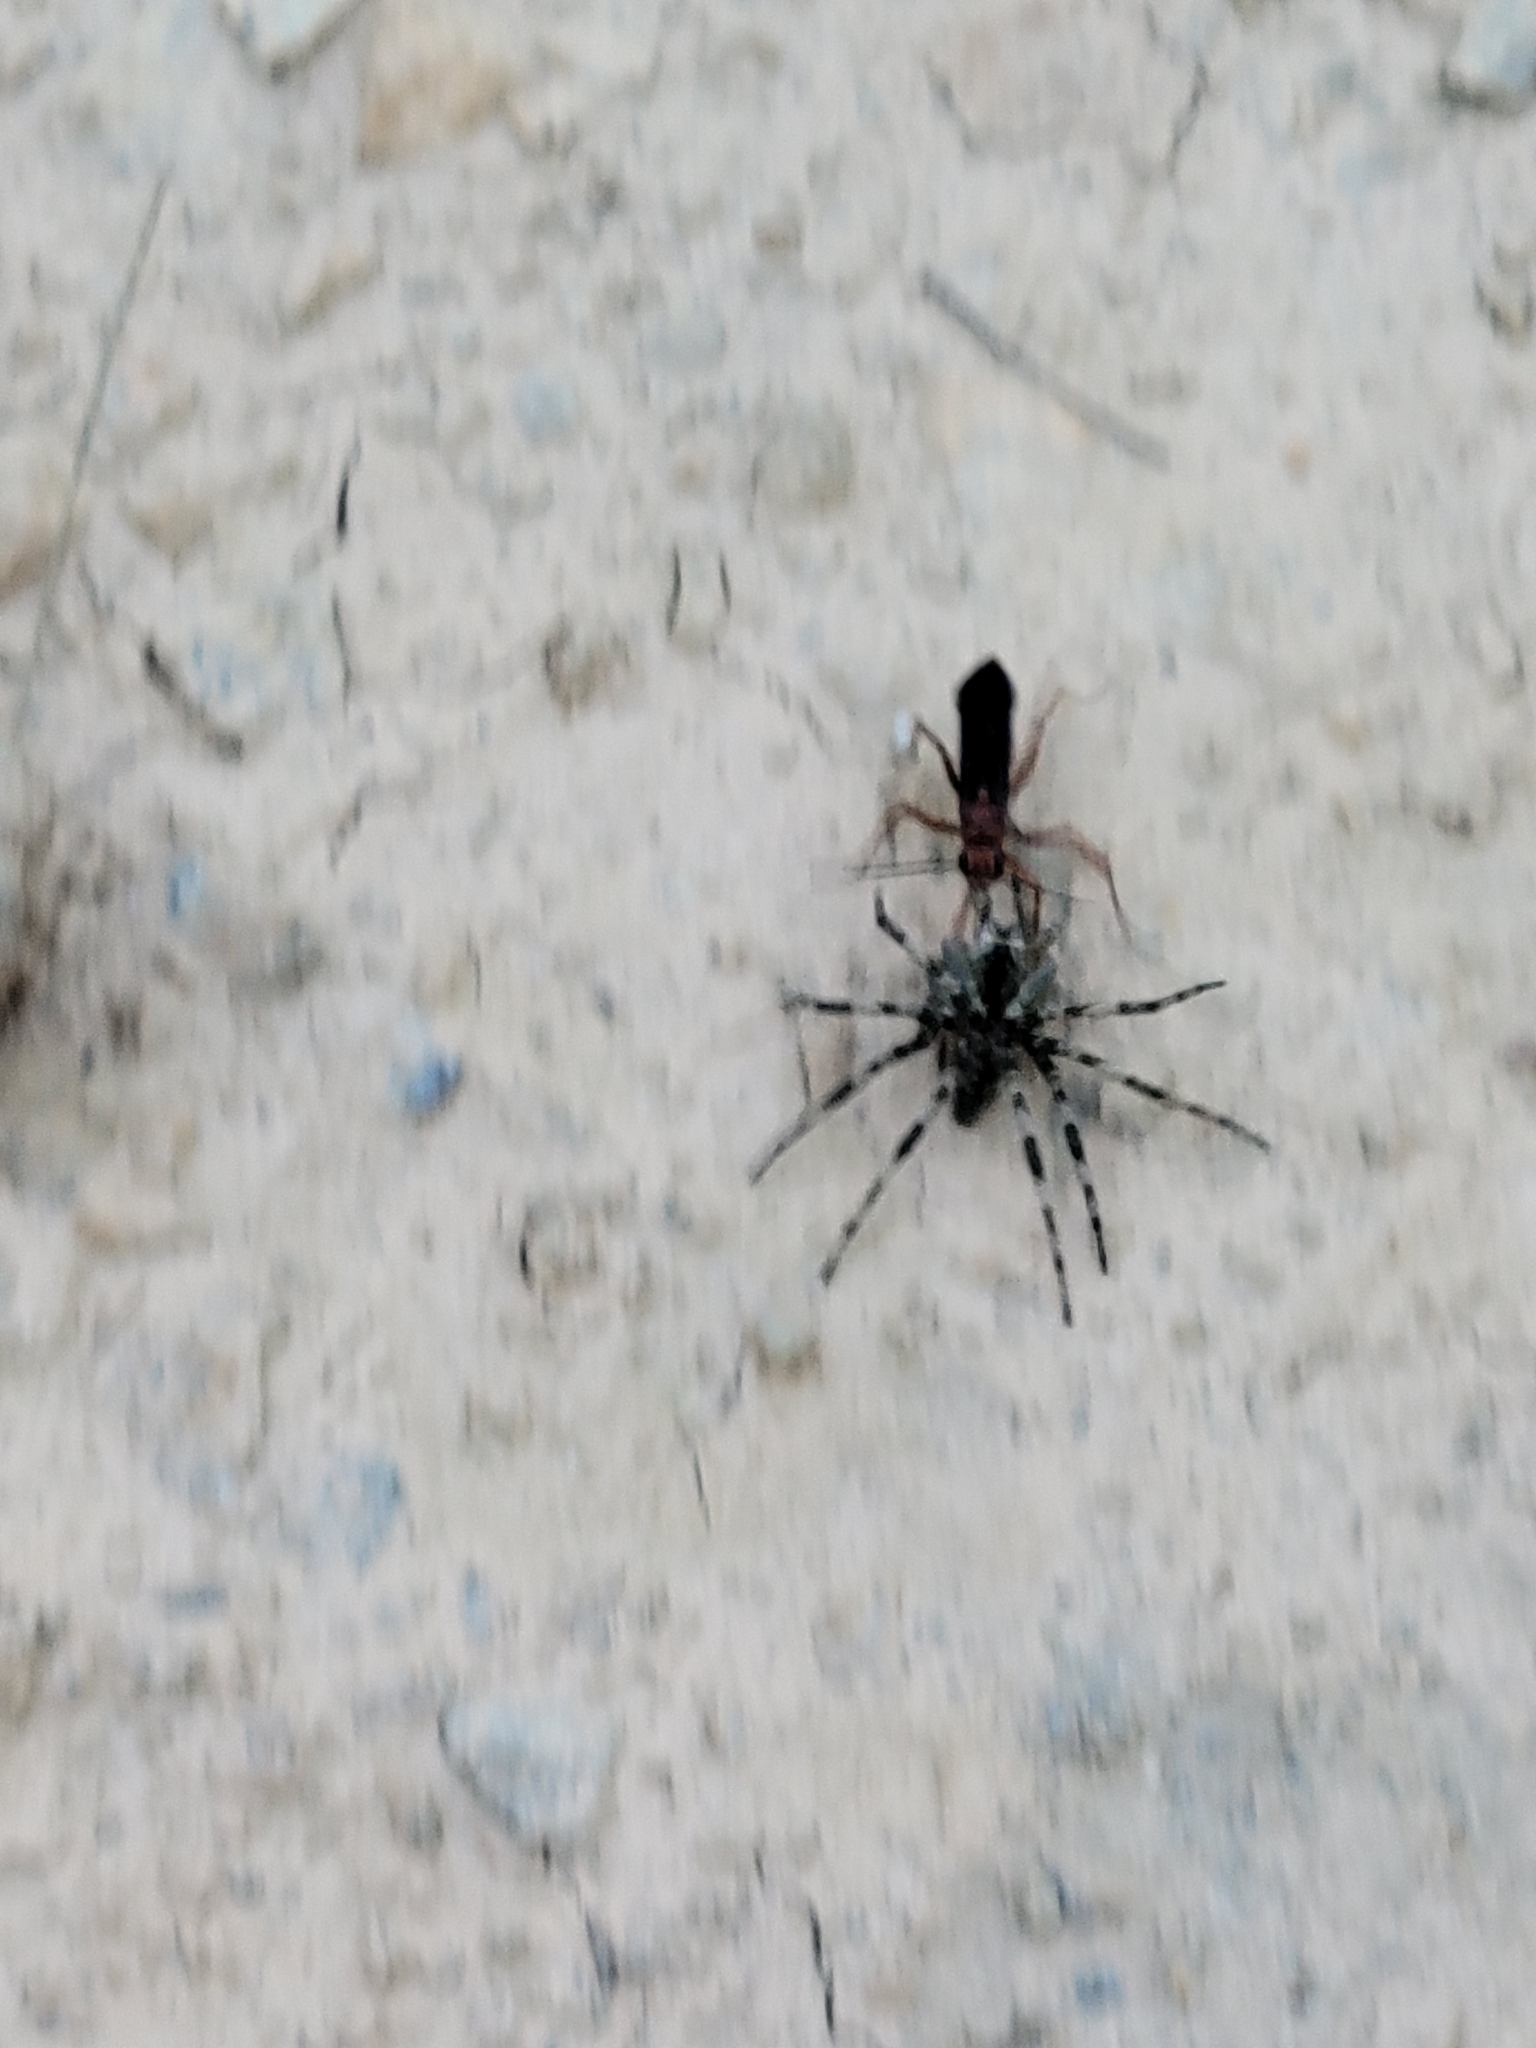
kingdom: Animalia
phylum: Arthropoda
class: Insecta
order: Hymenoptera
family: Pompilidae
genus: Tachypompilus
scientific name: Tachypompilus ferrugineus
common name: Rusty spider wasp
